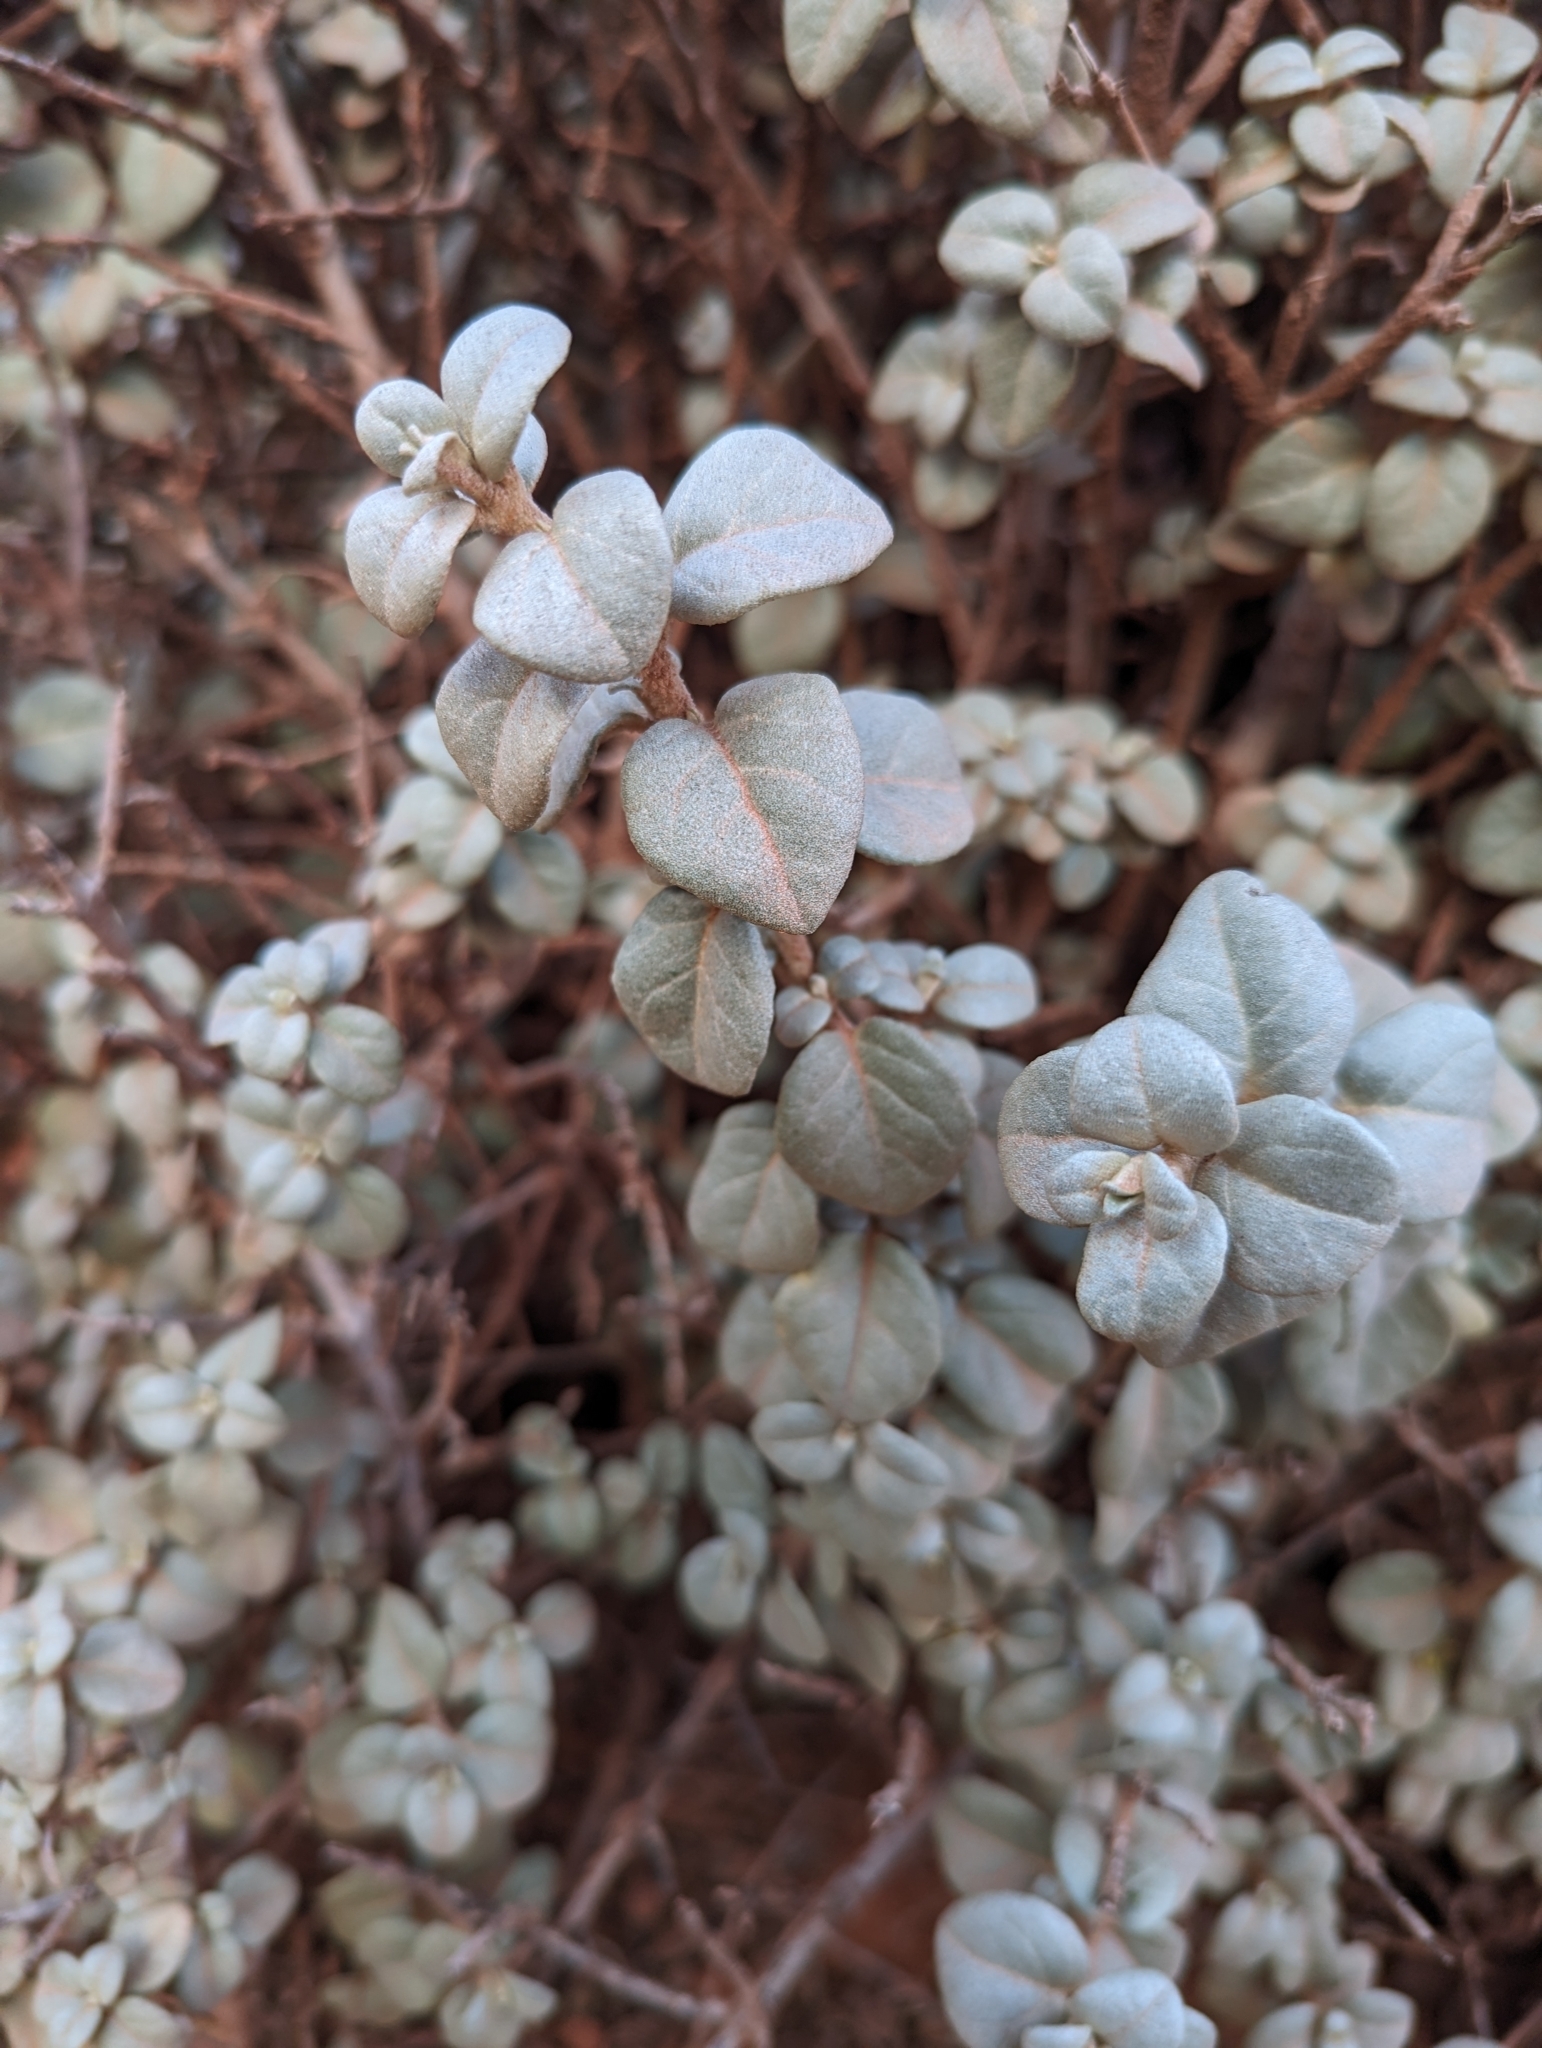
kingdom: Plantae
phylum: Tracheophyta
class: Magnoliopsida
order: Rosales
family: Elaeagnaceae
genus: Shepherdia
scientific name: Shepherdia rotundifolia
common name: Silverscale
